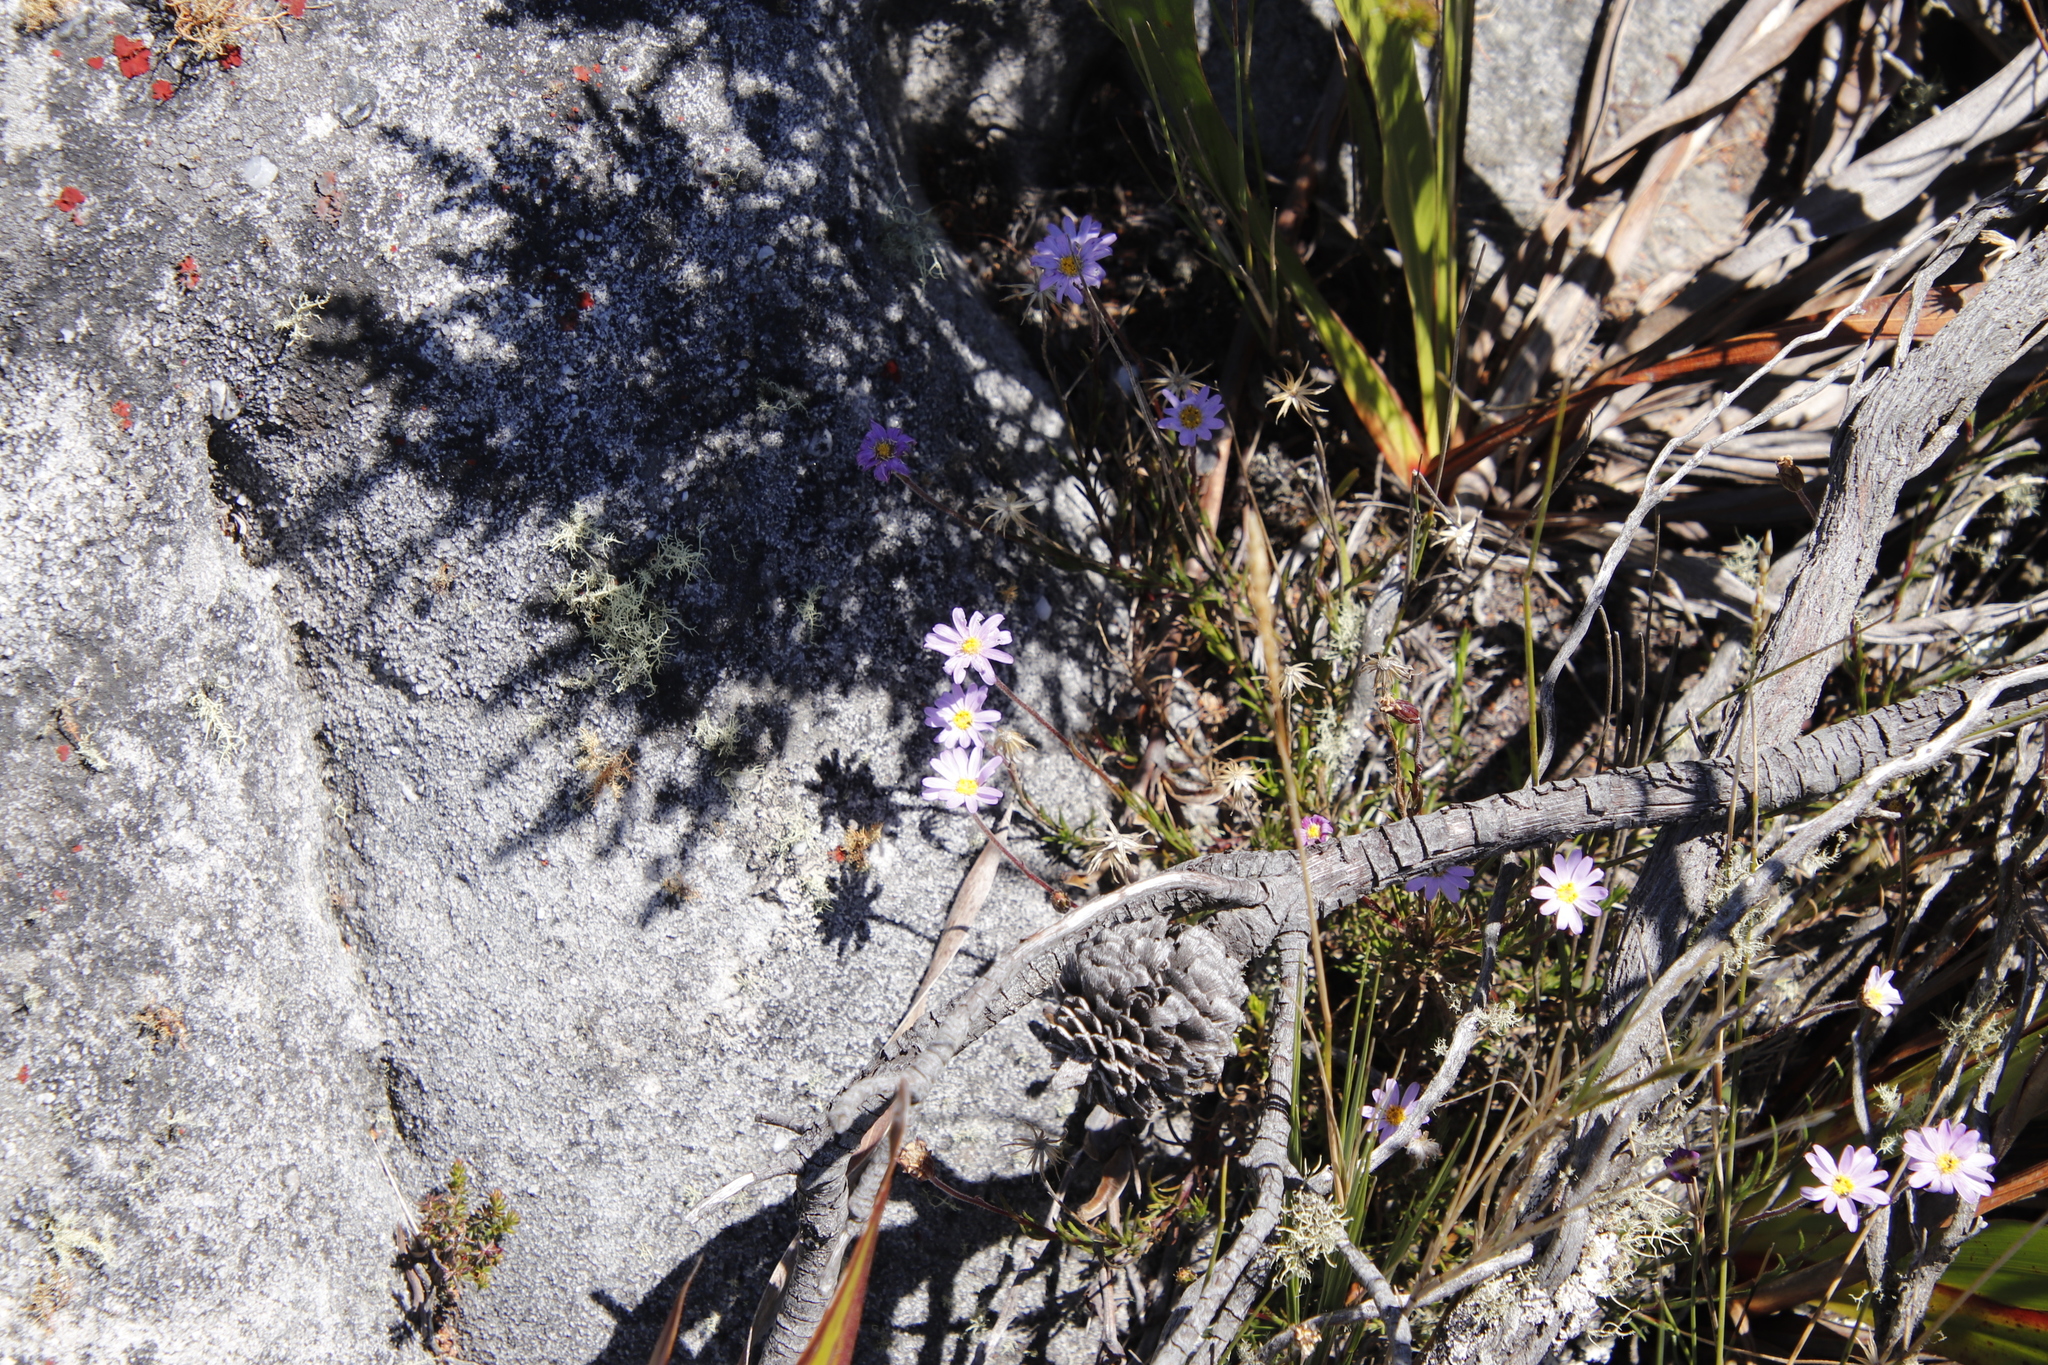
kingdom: Plantae
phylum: Tracheophyta
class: Magnoliopsida
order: Asterales
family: Asteraceae
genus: Zyrphelis
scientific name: Zyrphelis taxifolia
